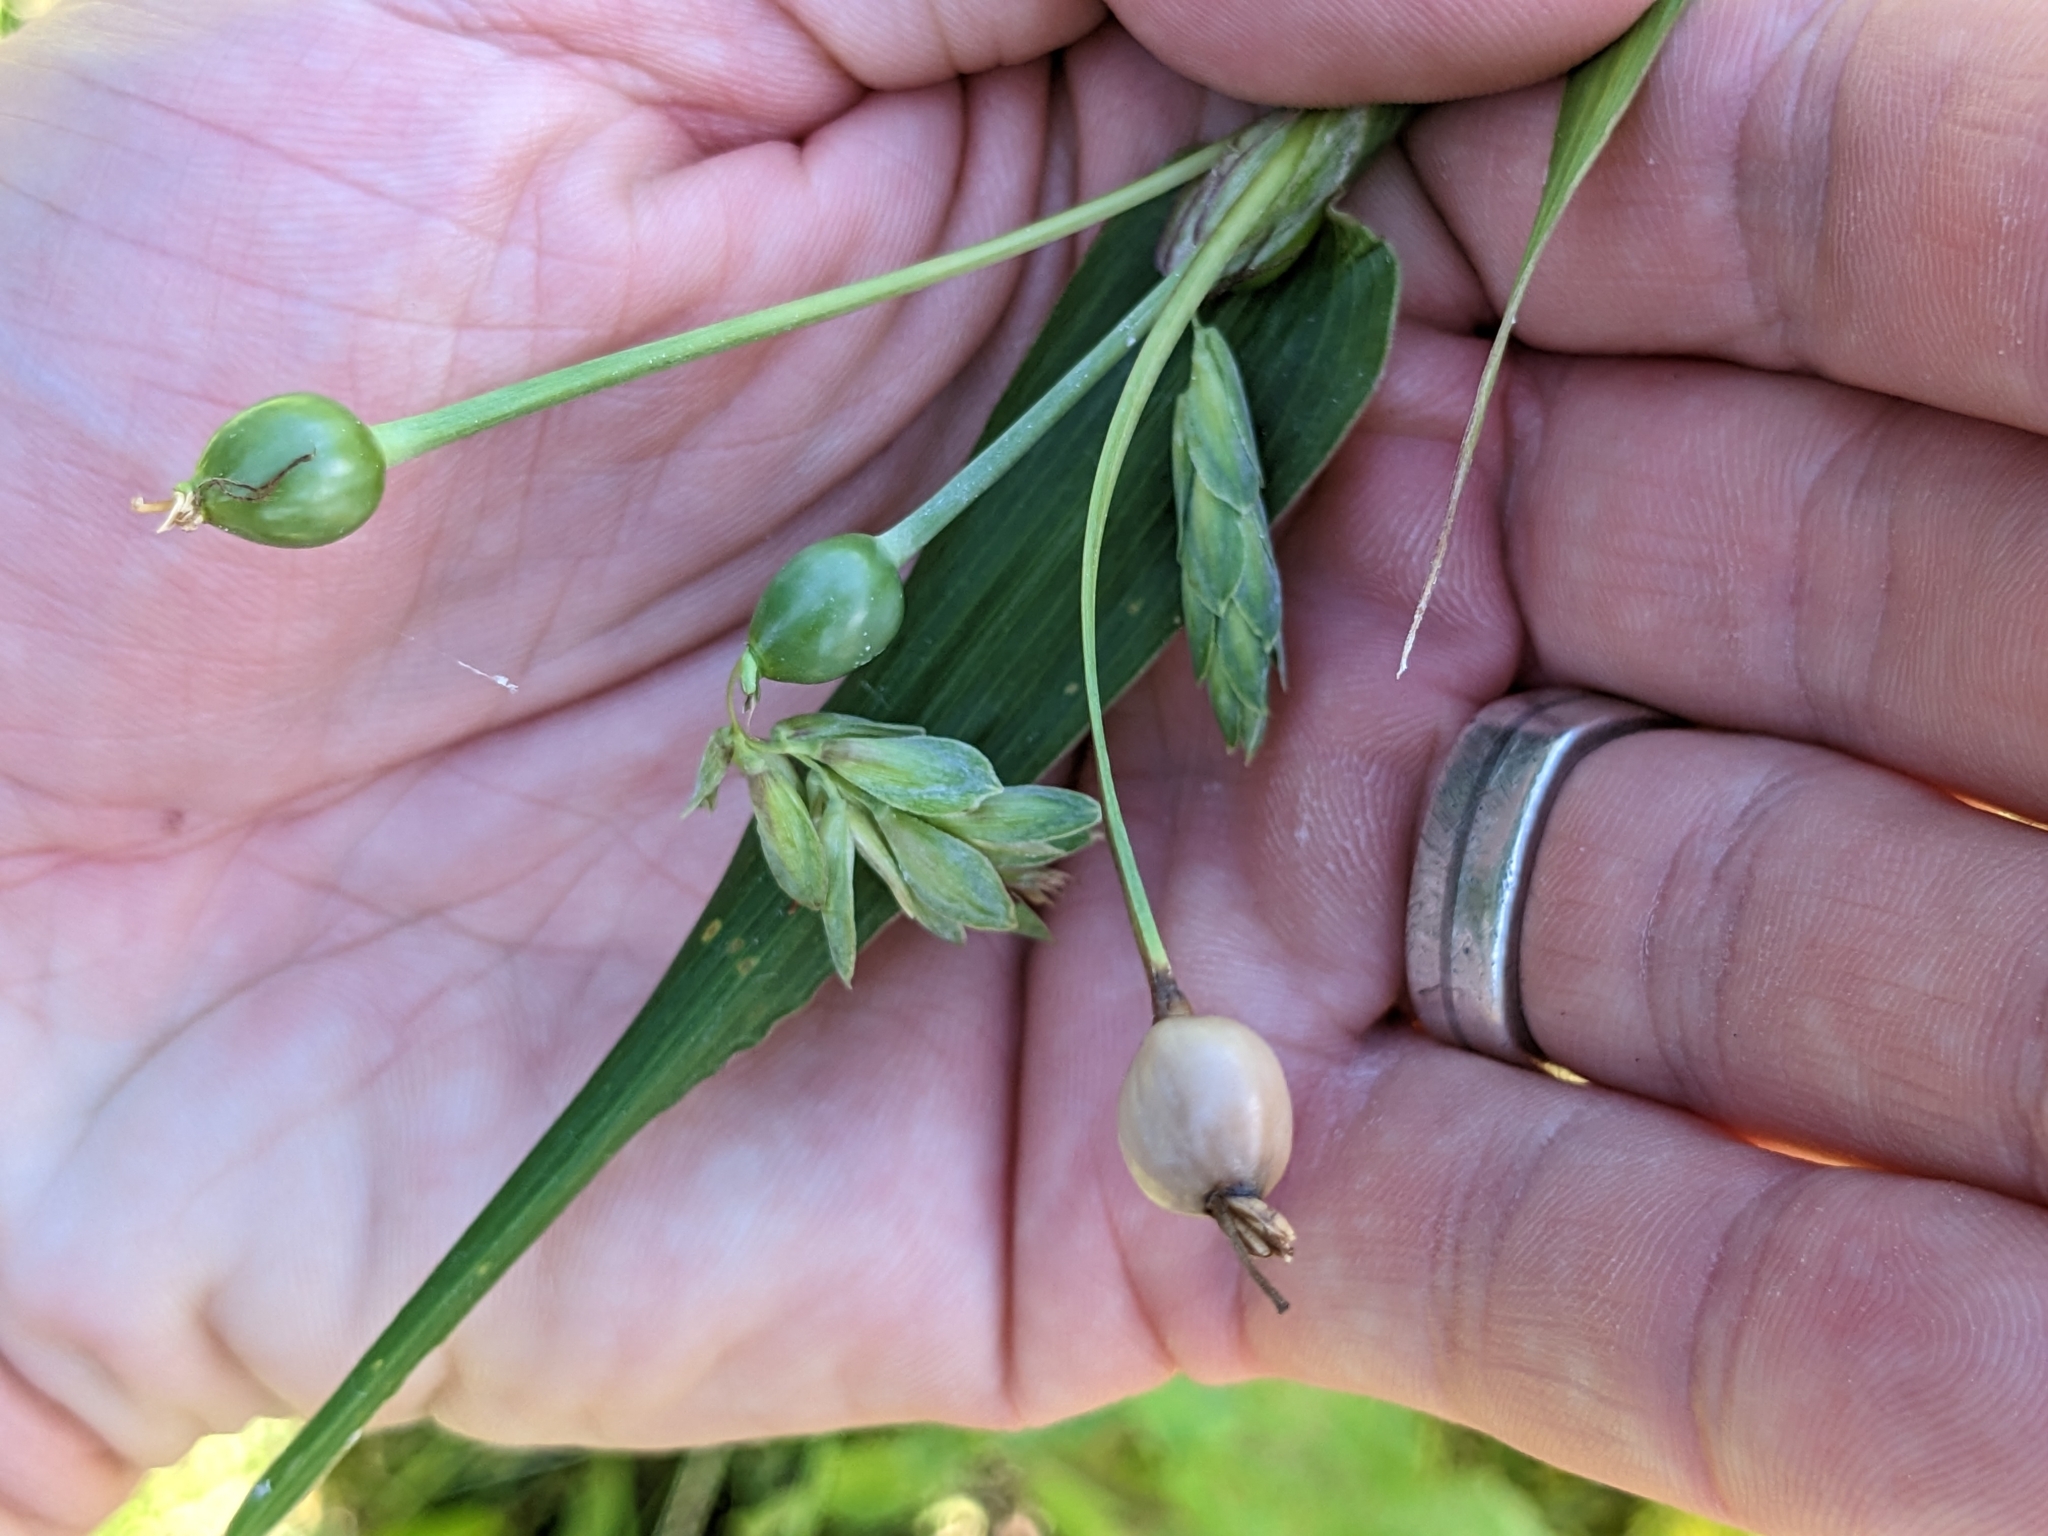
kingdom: Plantae
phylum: Tracheophyta
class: Liliopsida
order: Poales
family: Poaceae
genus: Coix
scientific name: Coix lacryma-jobi
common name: Job's tears
